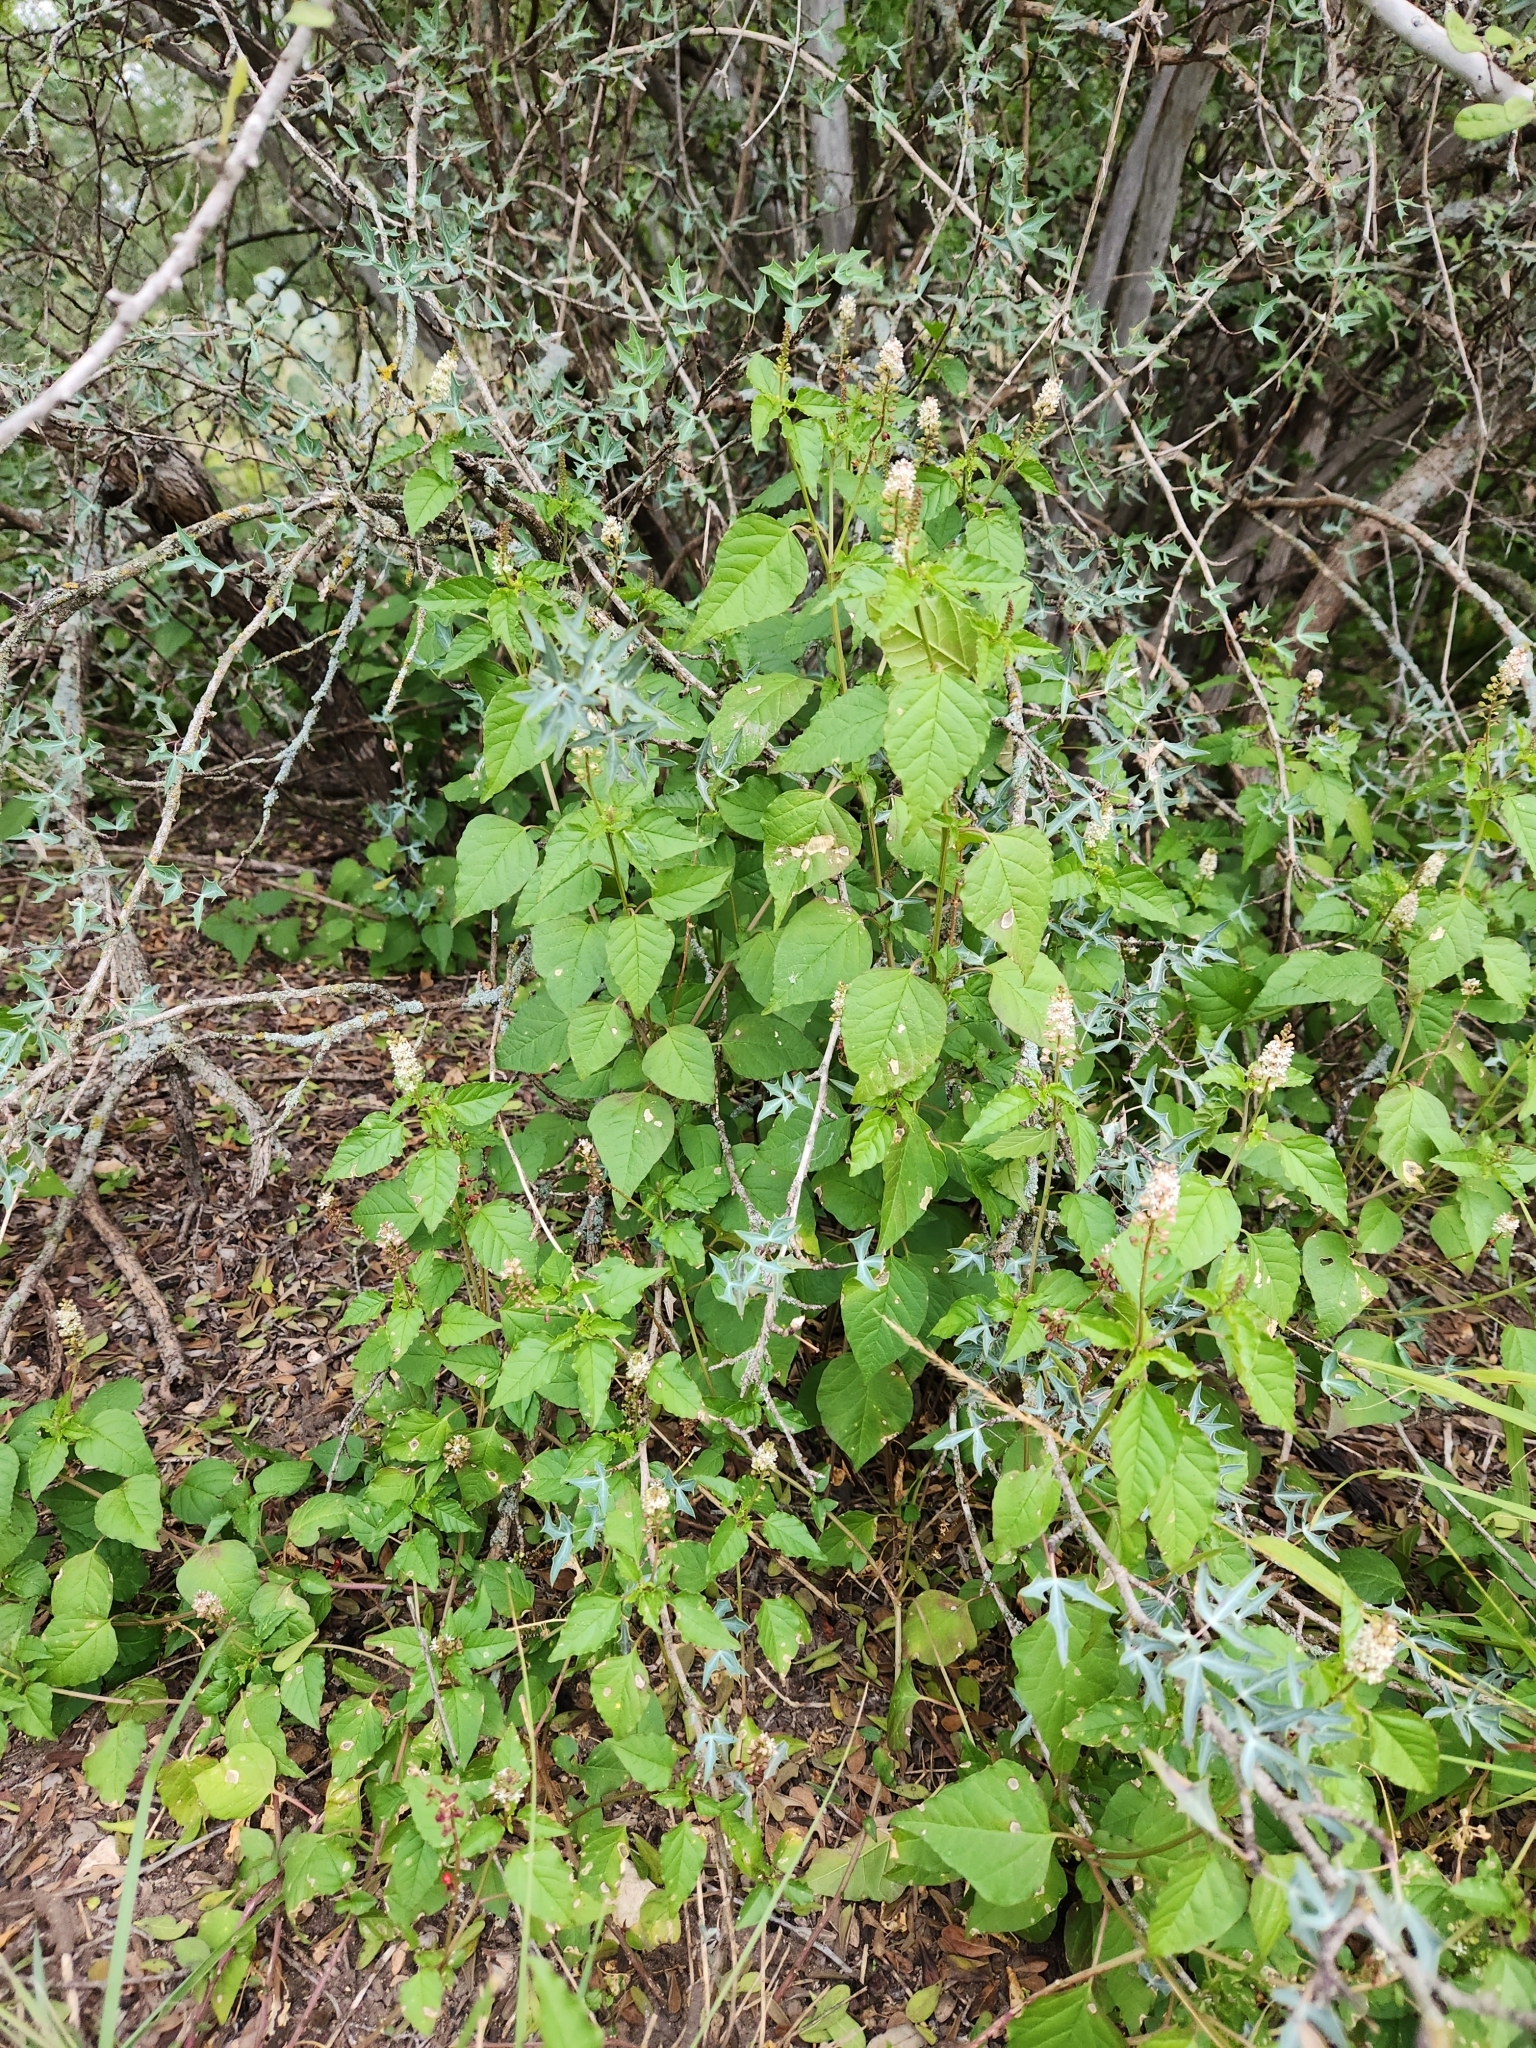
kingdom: Plantae
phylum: Tracheophyta
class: Magnoliopsida
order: Caryophyllales
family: Phytolaccaceae
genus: Rivina
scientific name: Rivina humilis
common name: Rougeplant
